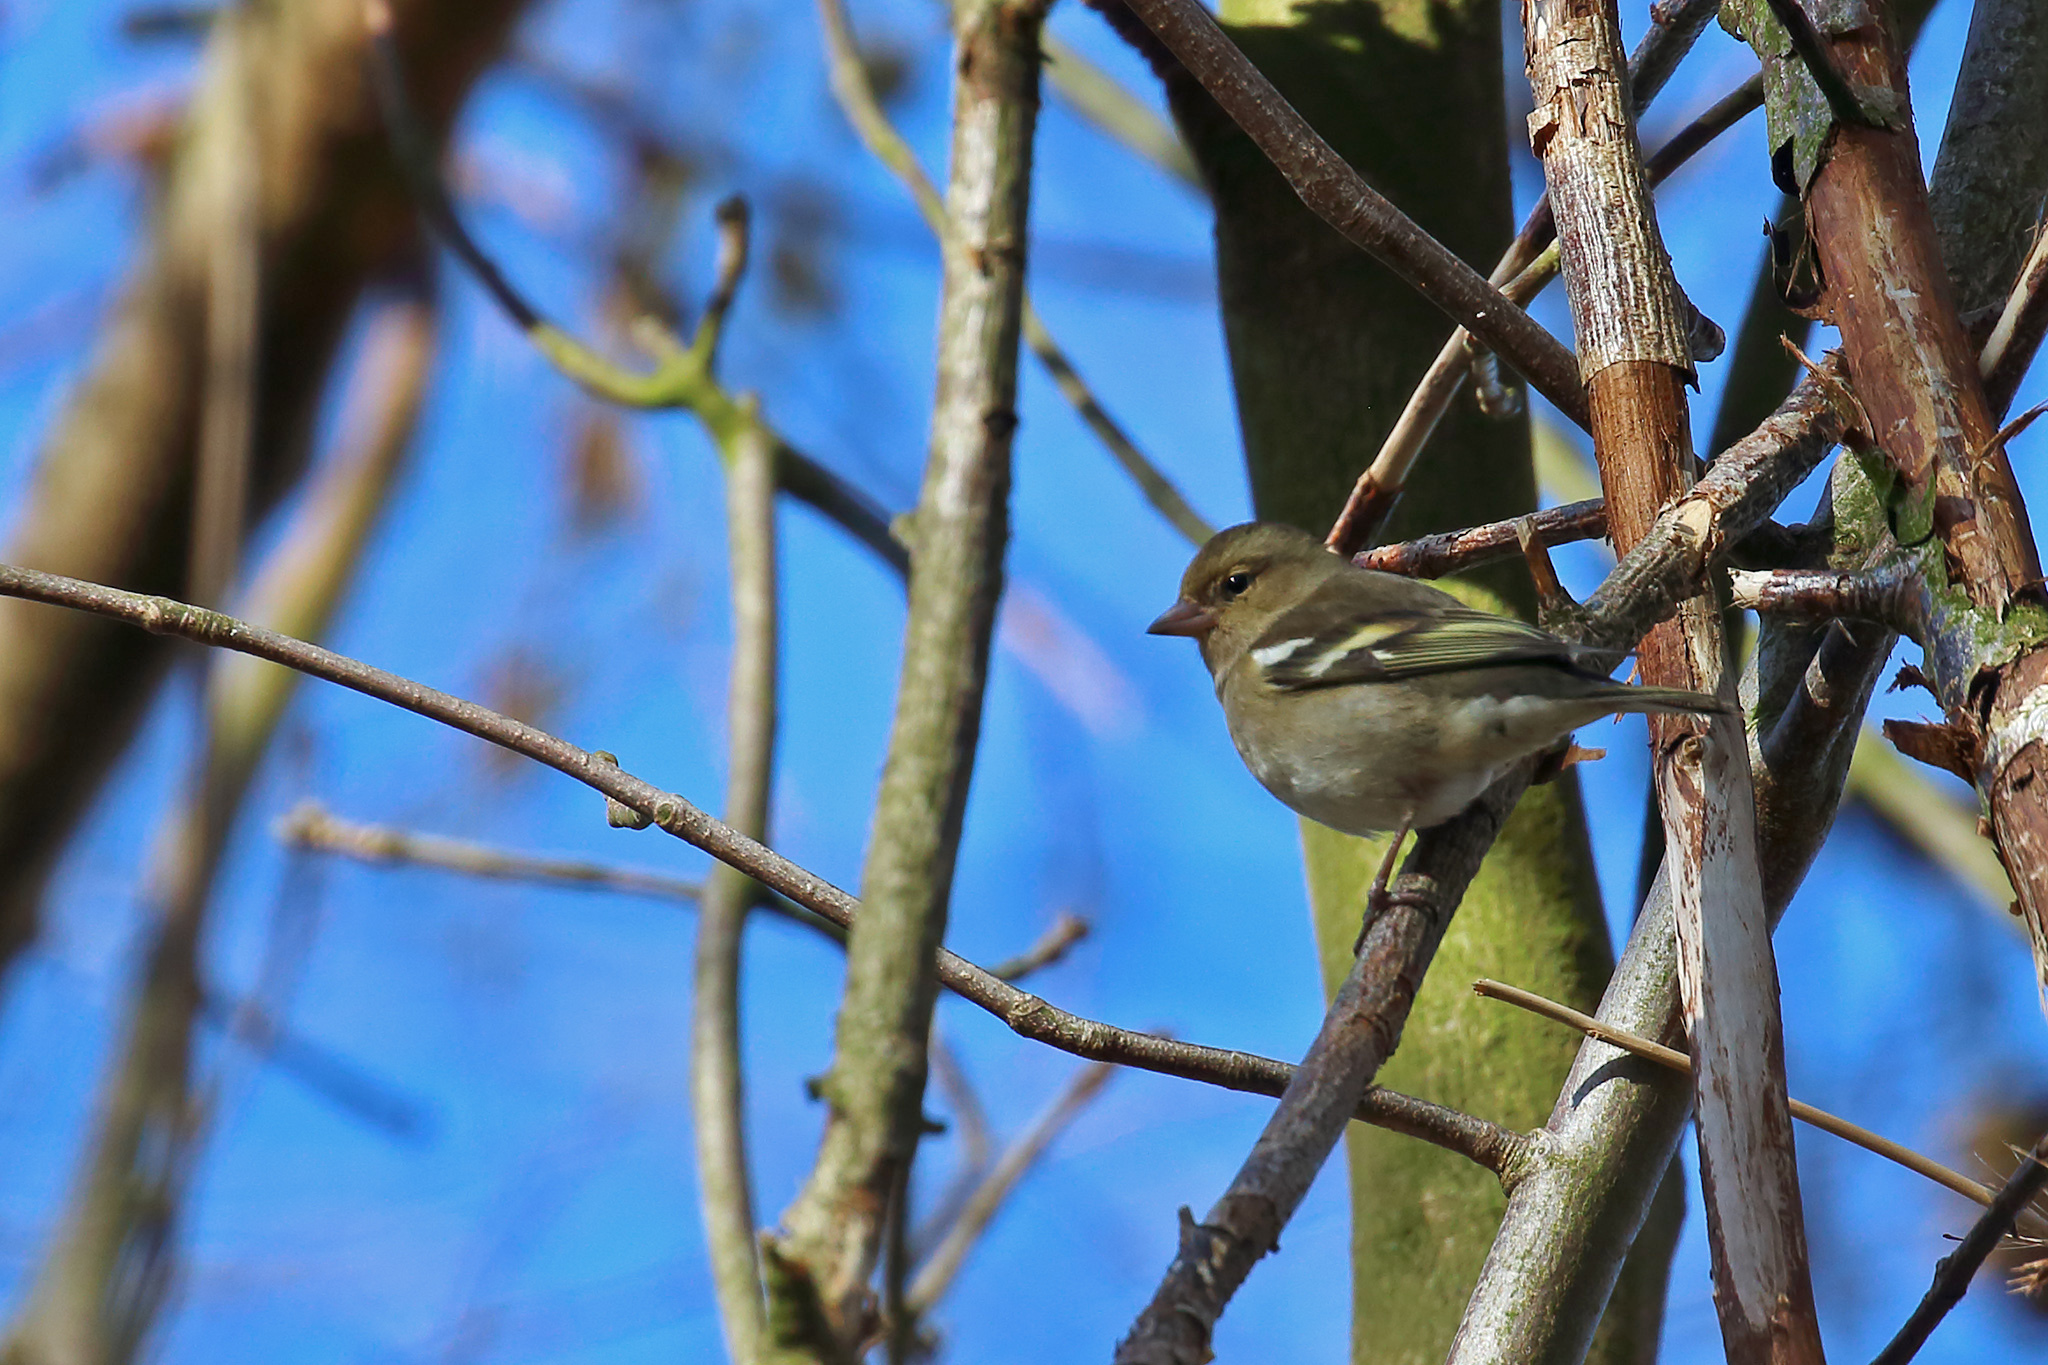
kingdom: Animalia
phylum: Chordata
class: Aves
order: Passeriformes
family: Fringillidae
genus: Fringilla
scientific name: Fringilla coelebs
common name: Common chaffinch
